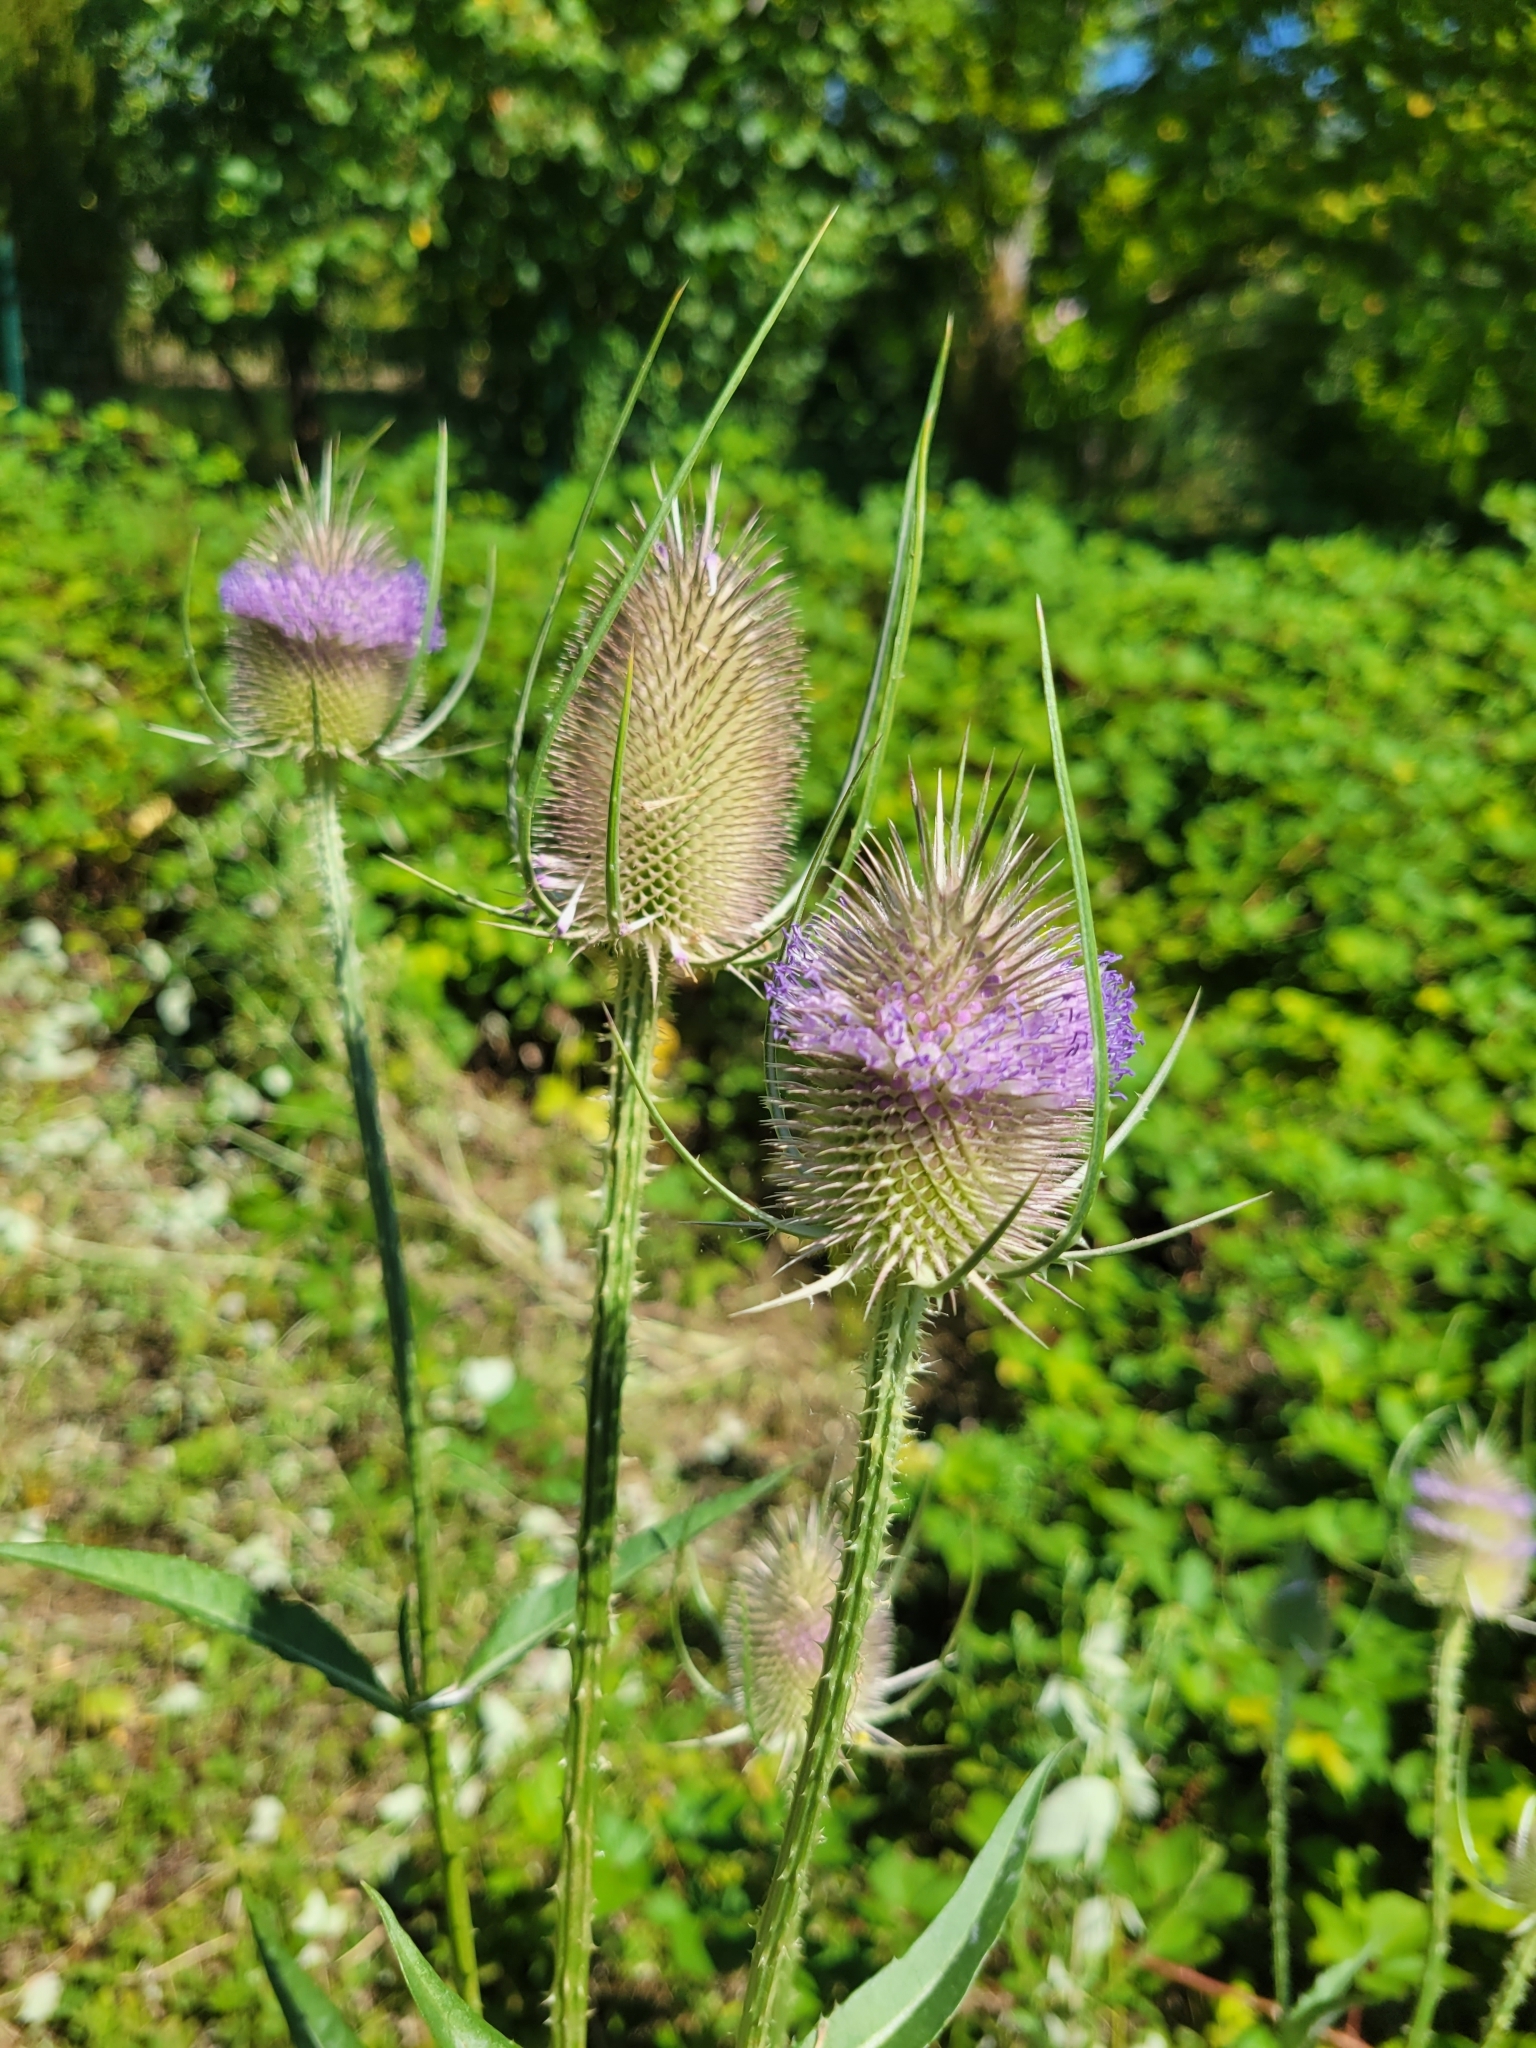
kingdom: Plantae
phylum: Tracheophyta
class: Magnoliopsida
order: Dipsacales
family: Caprifoliaceae
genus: Dipsacus
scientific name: Dipsacus fullonum
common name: Teasel
